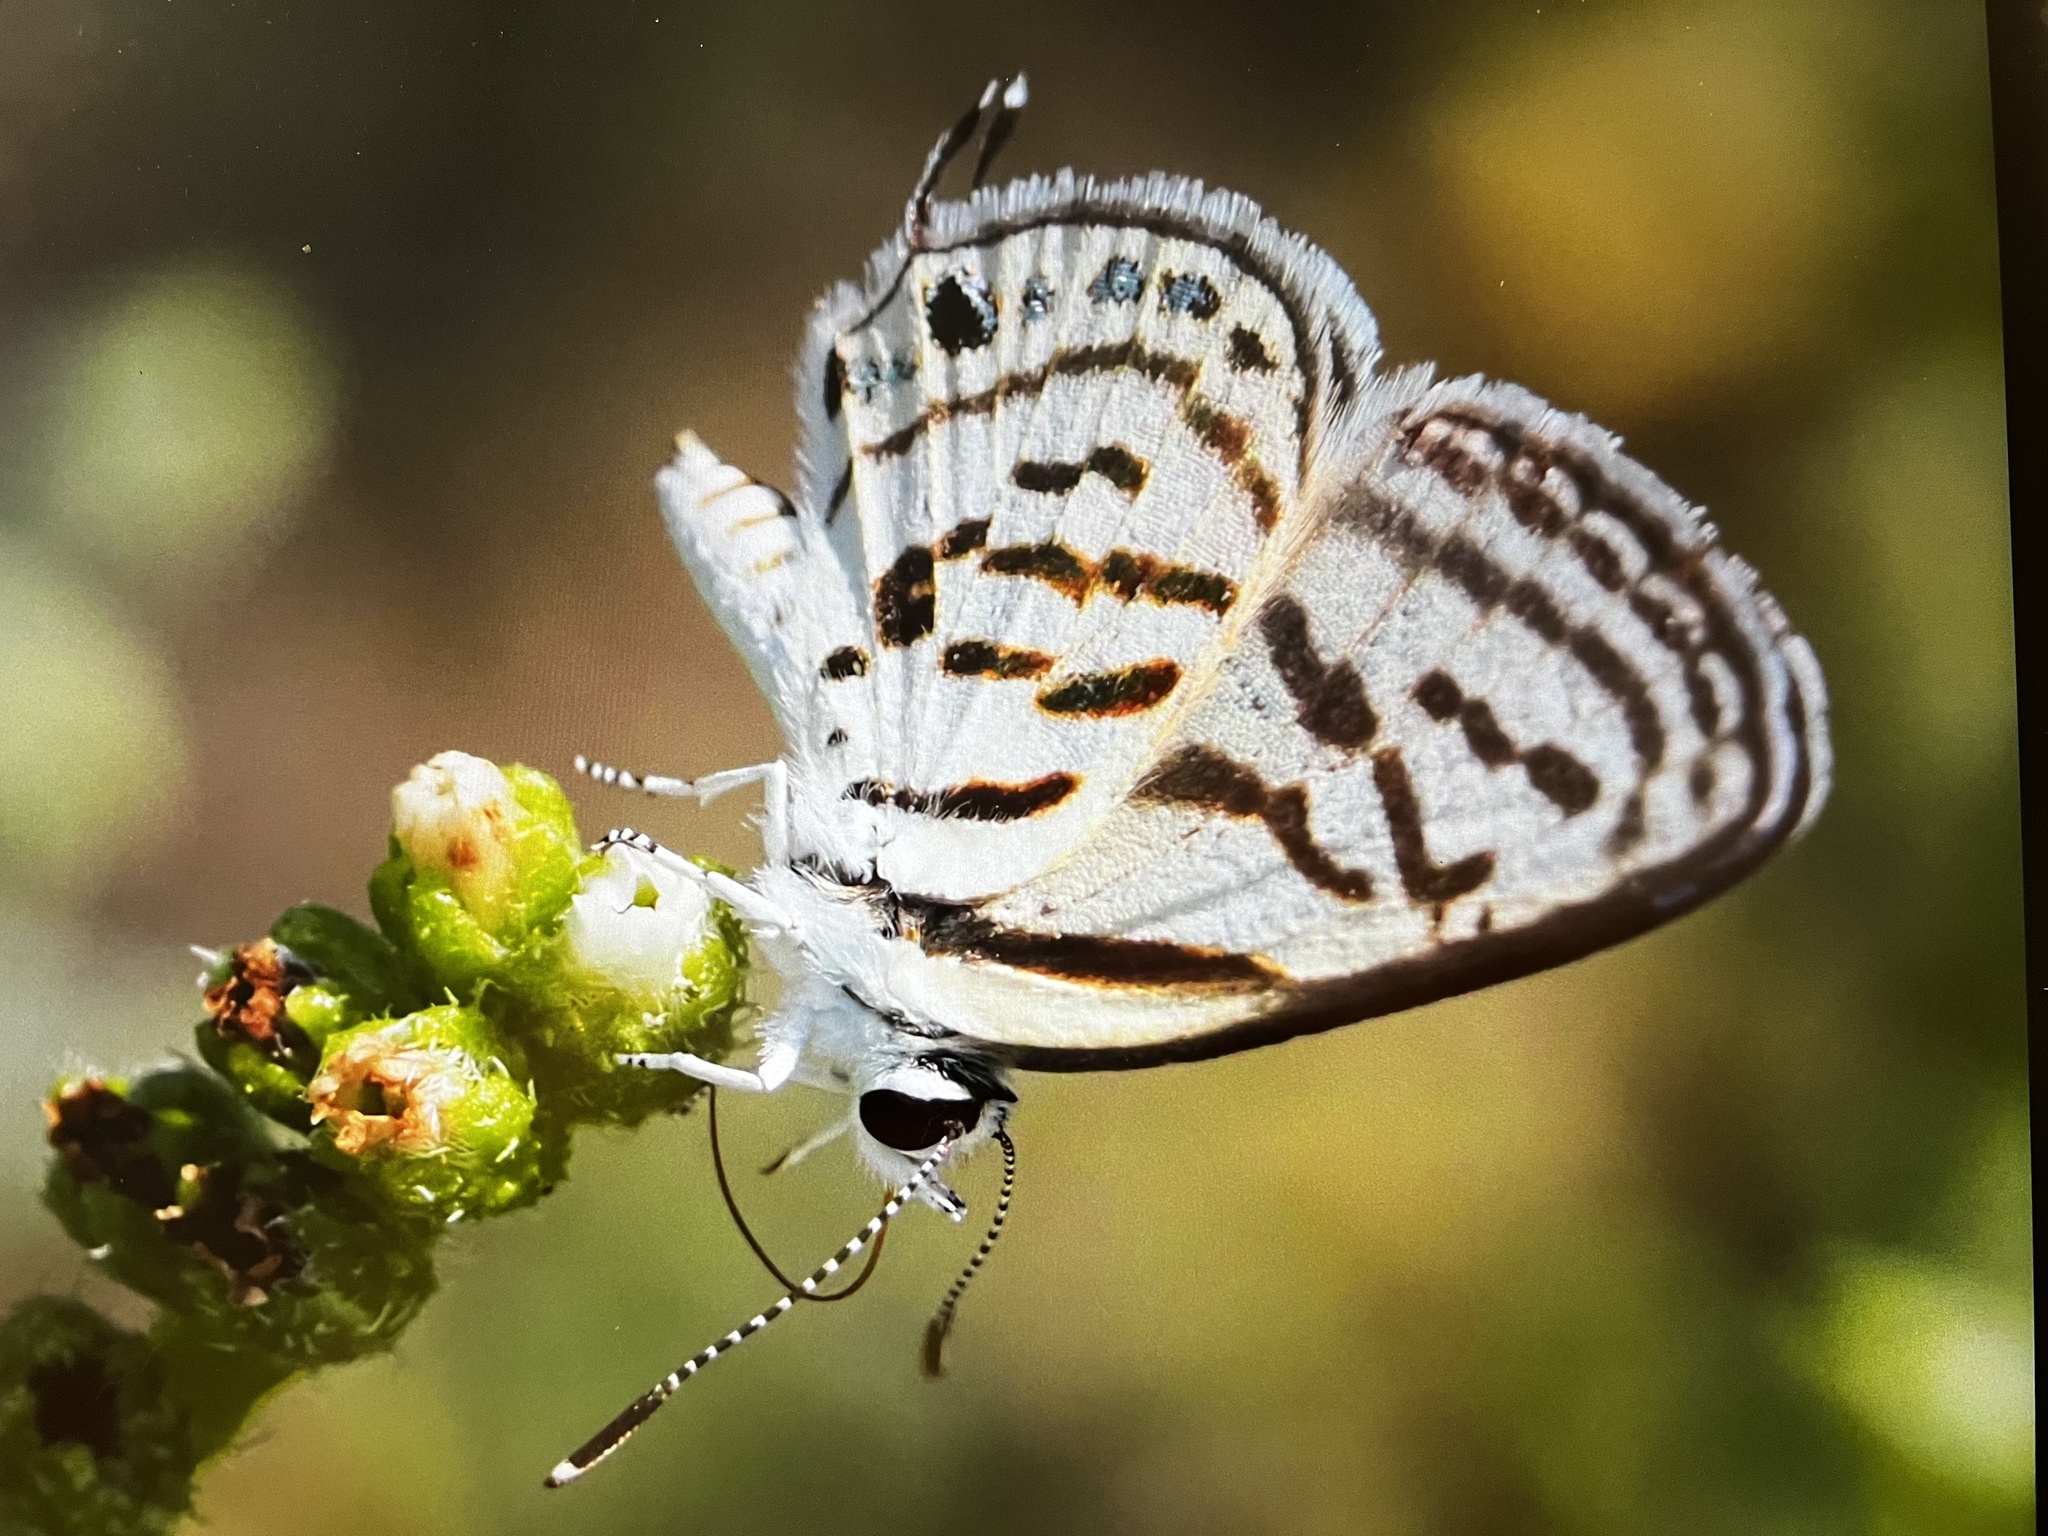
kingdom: Animalia
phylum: Arthropoda
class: Insecta
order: Lepidoptera
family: Lycaenidae
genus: Tarucus
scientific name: Tarucus balkanica
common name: Little tiger blue
